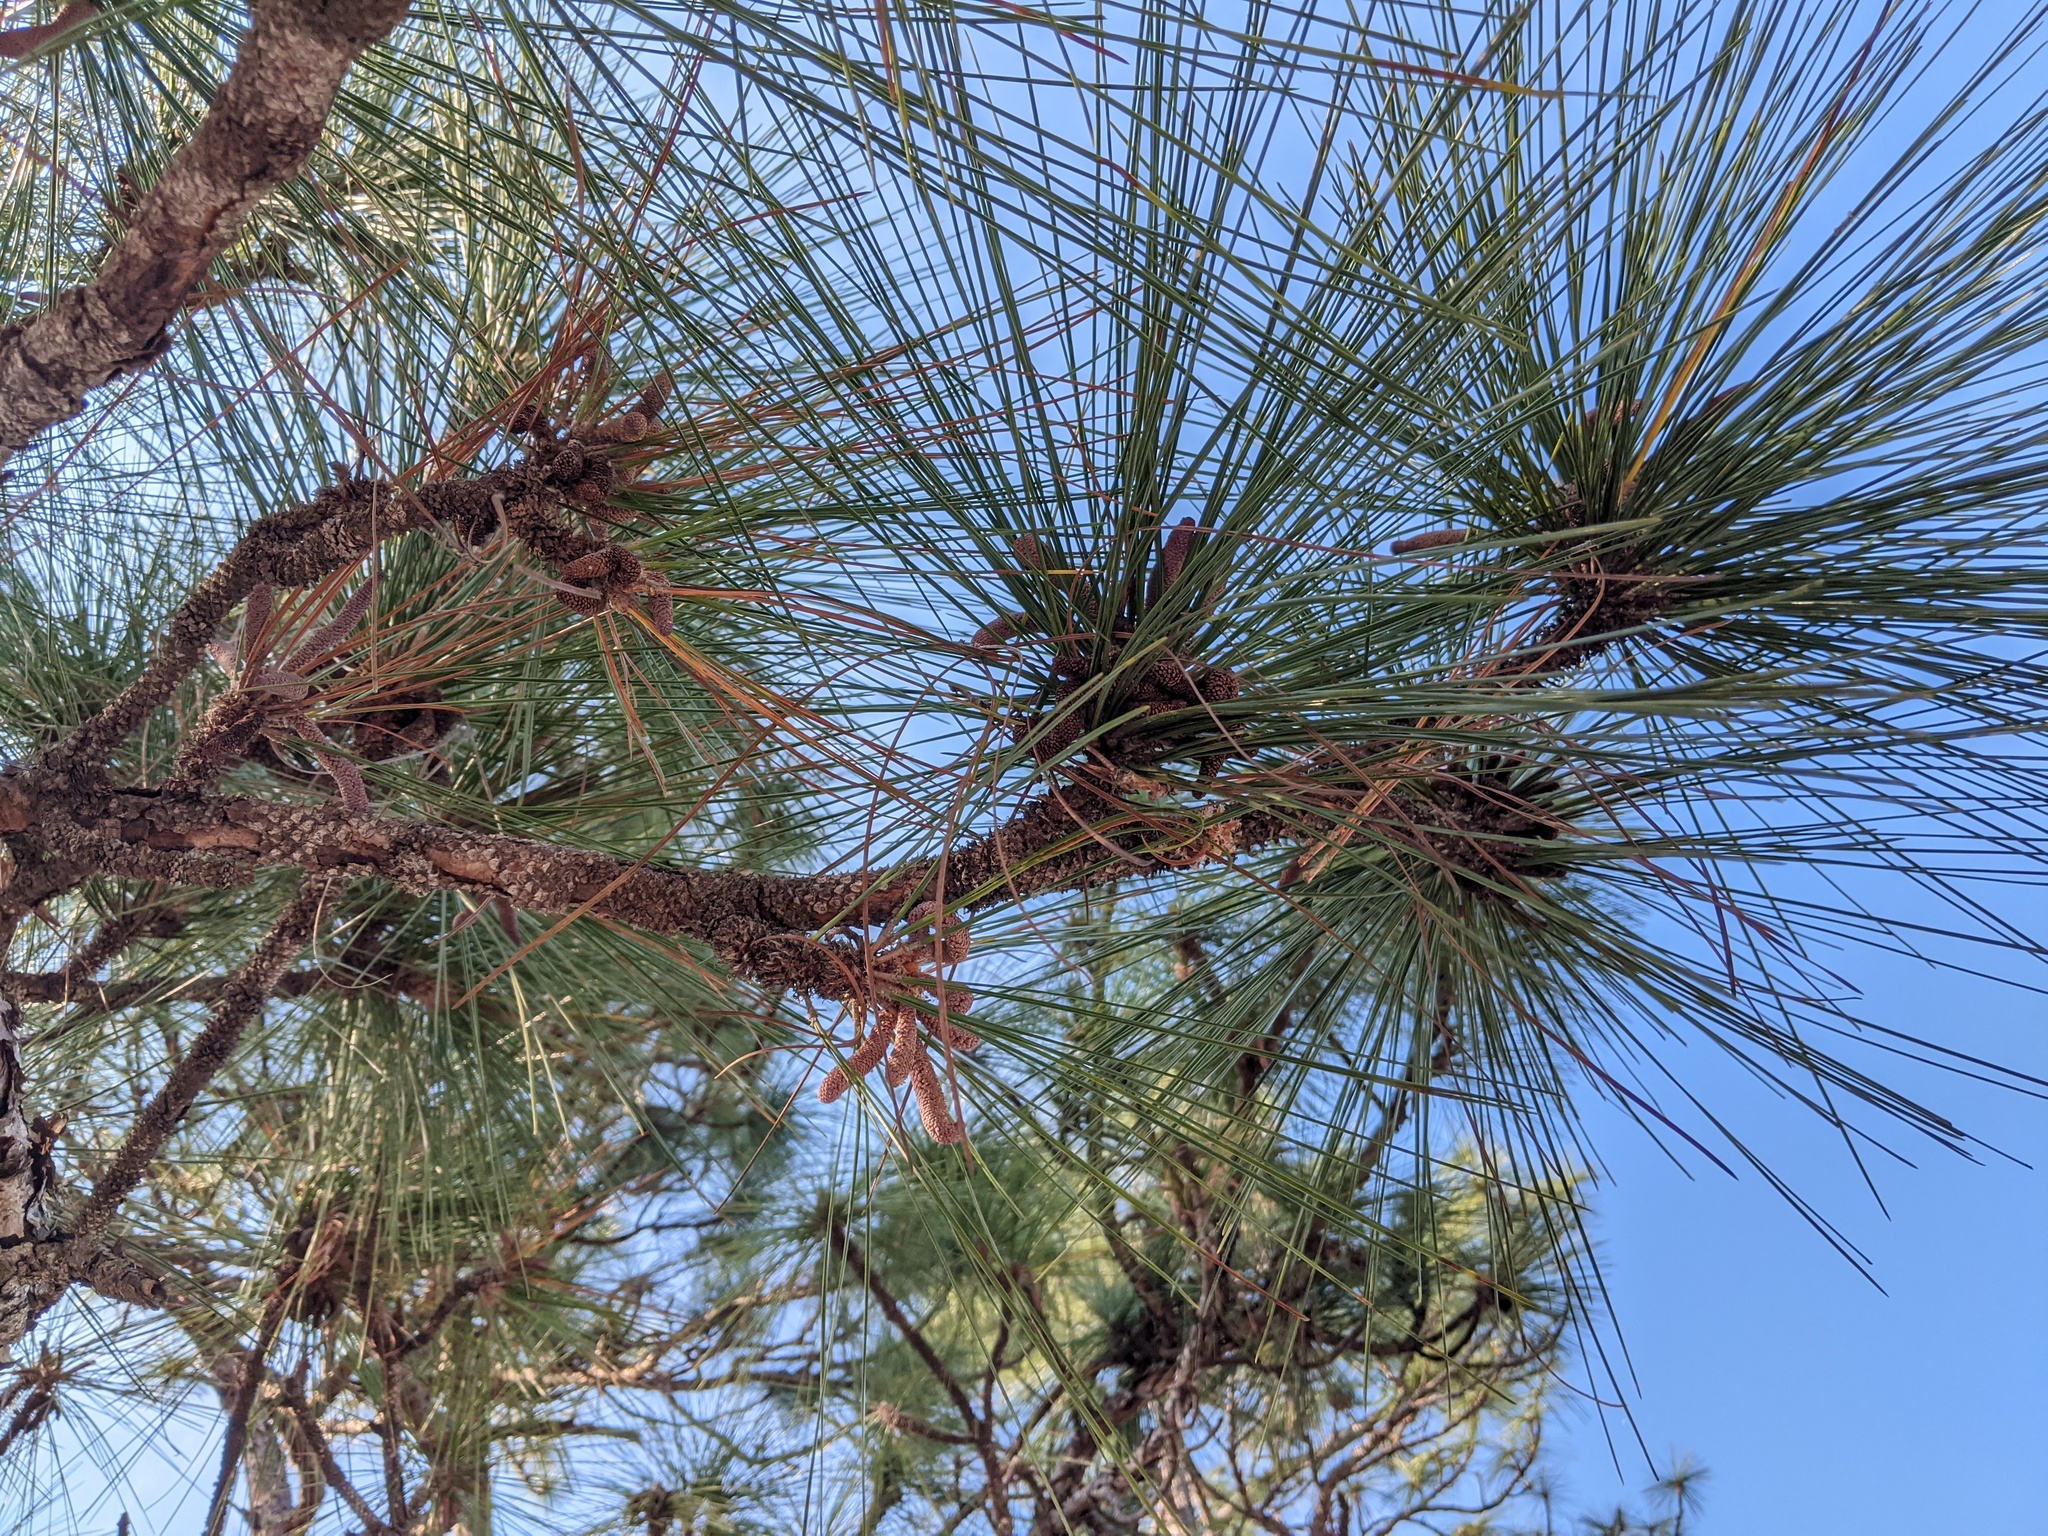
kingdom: Plantae
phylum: Tracheophyta
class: Pinopsida
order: Pinales
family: Pinaceae
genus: Pinus
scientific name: Pinus palustris
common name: Longleaf pine
